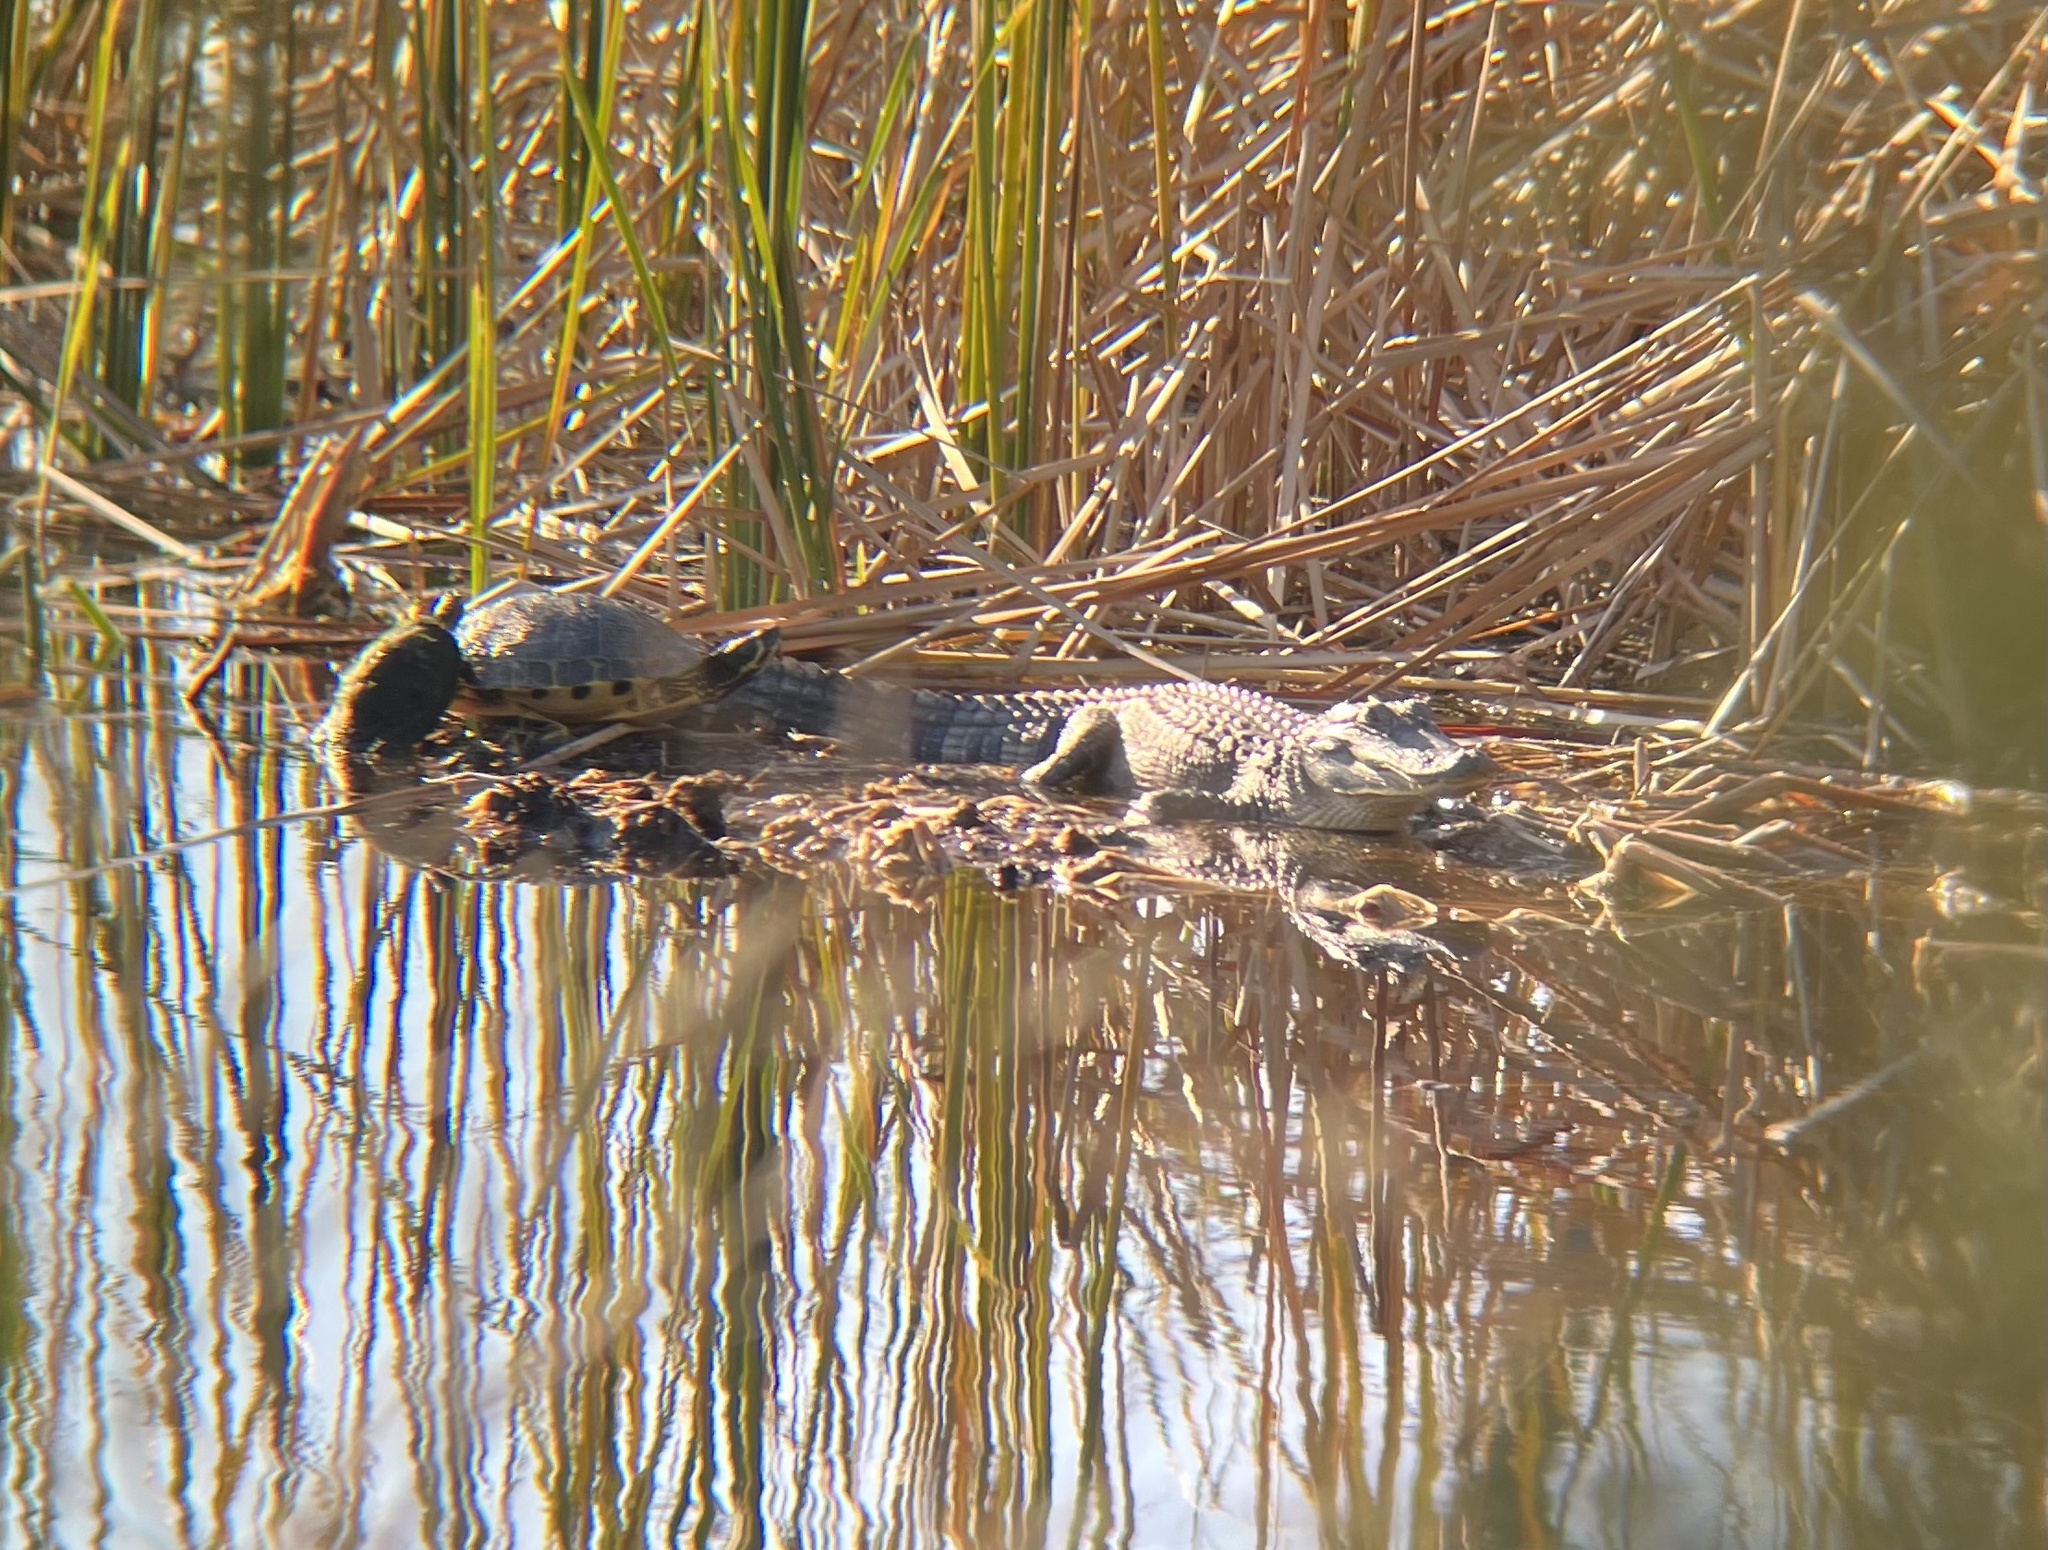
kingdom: Animalia
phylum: Chordata
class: Crocodylia
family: Alligatoridae
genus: Alligator
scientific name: Alligator mississippiensis
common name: American alligator
